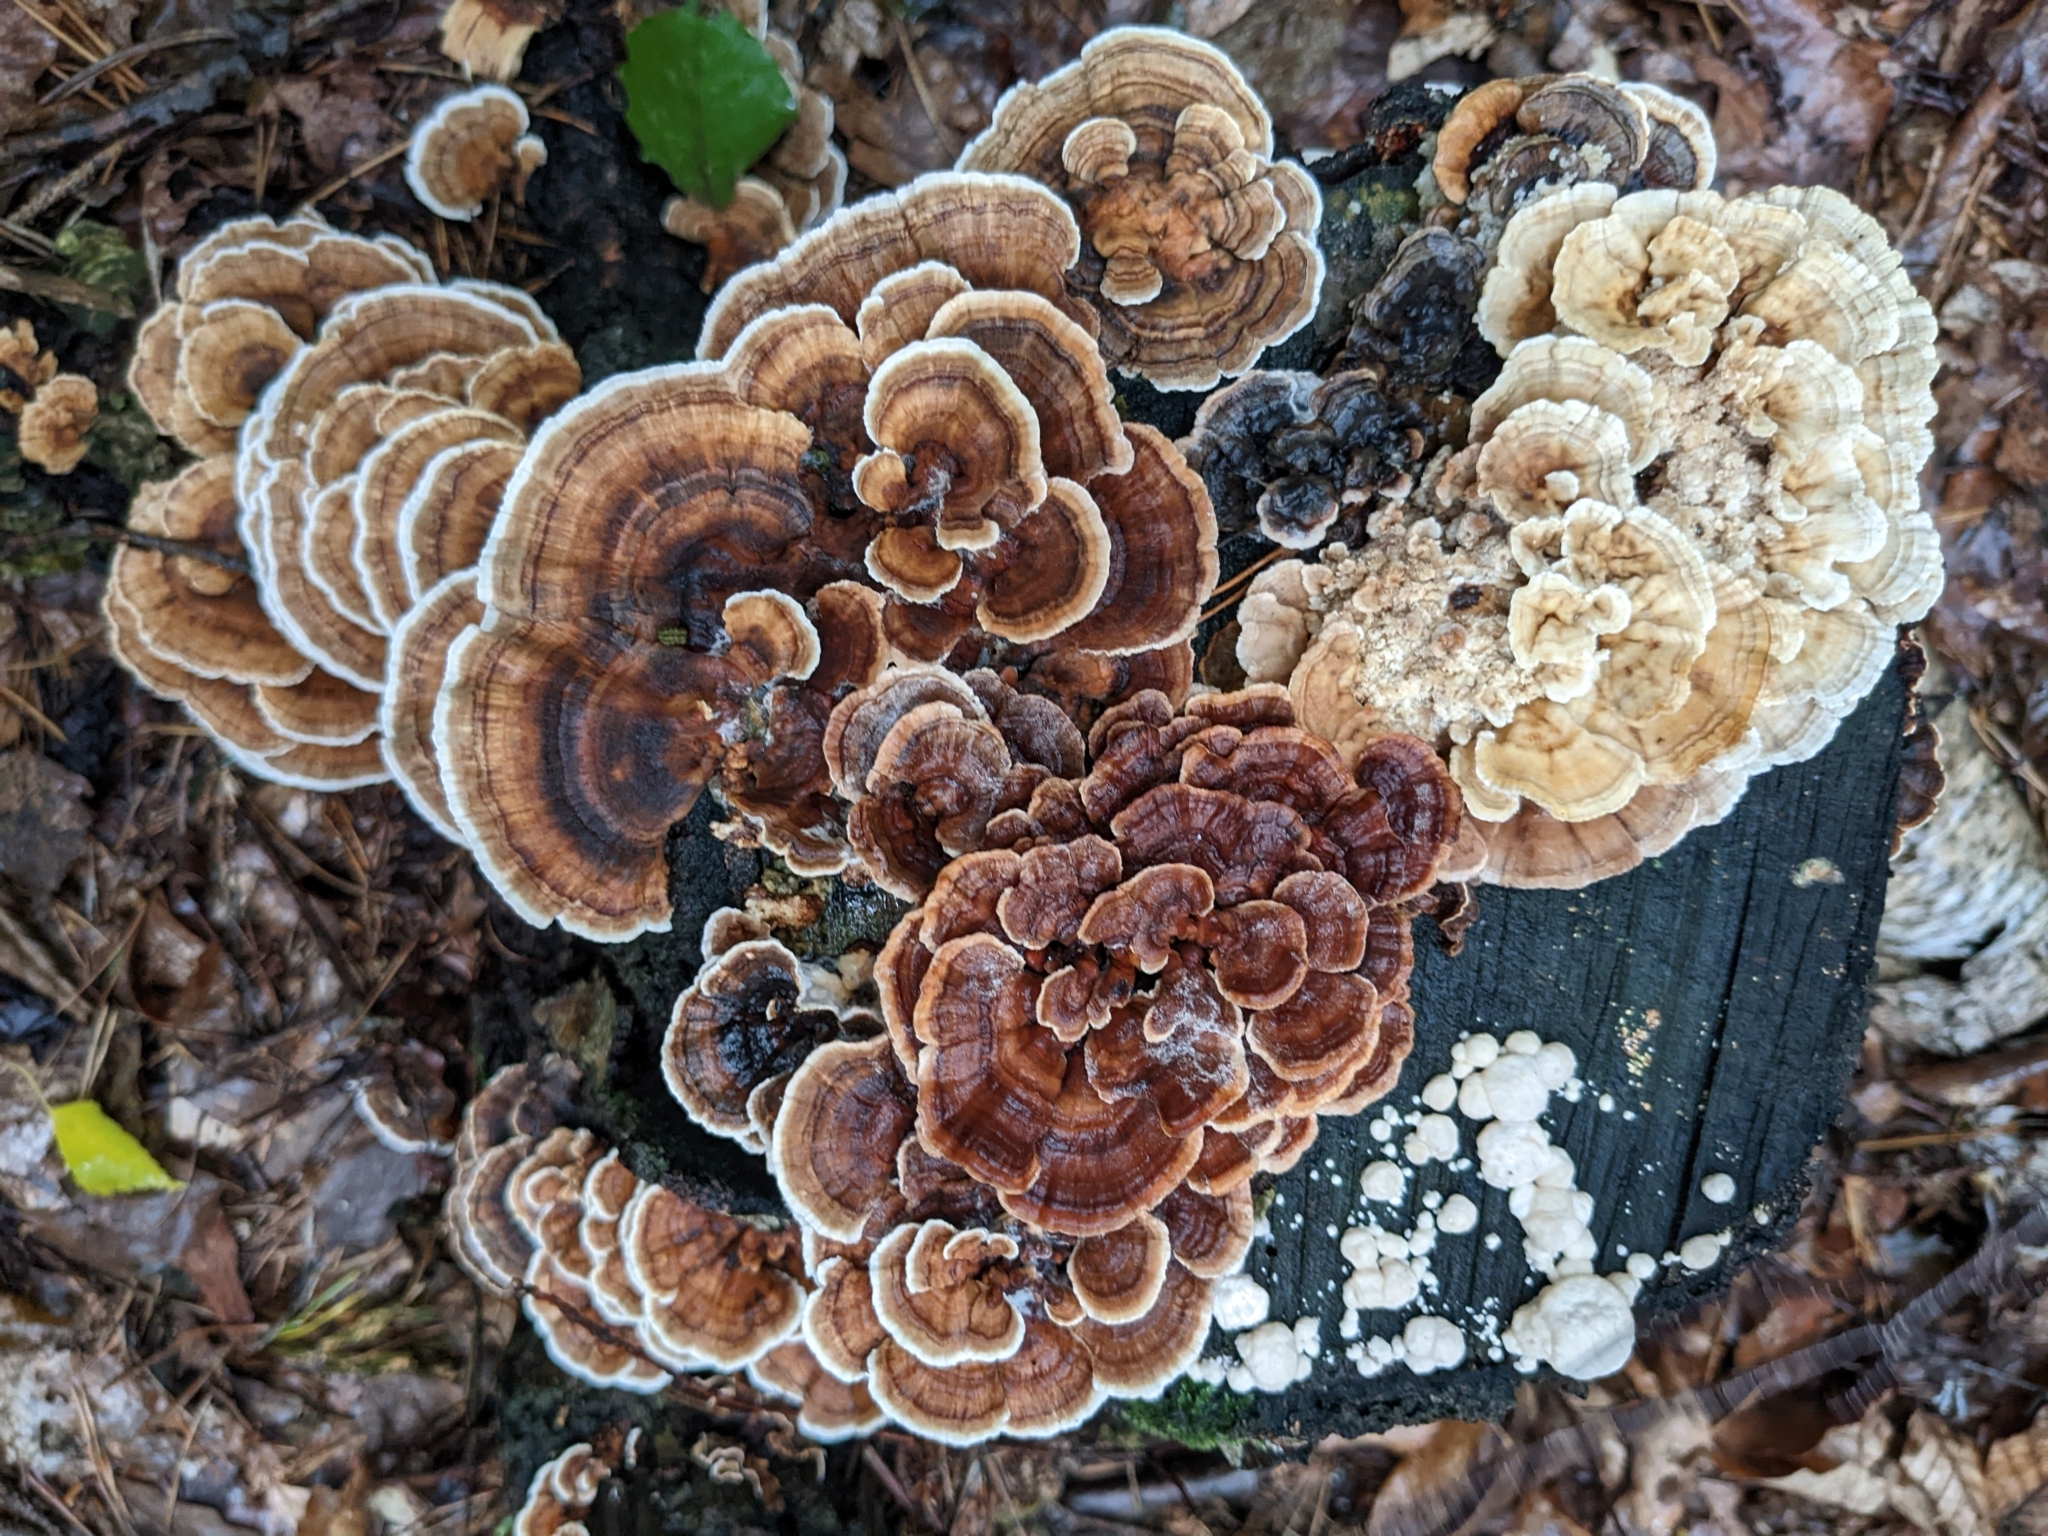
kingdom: Fungi
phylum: Basidiomycota
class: Agaricomycetes
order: Polyporales
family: Polyporaceae
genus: Trametes
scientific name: Trametes versicolor
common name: Turkeytail
